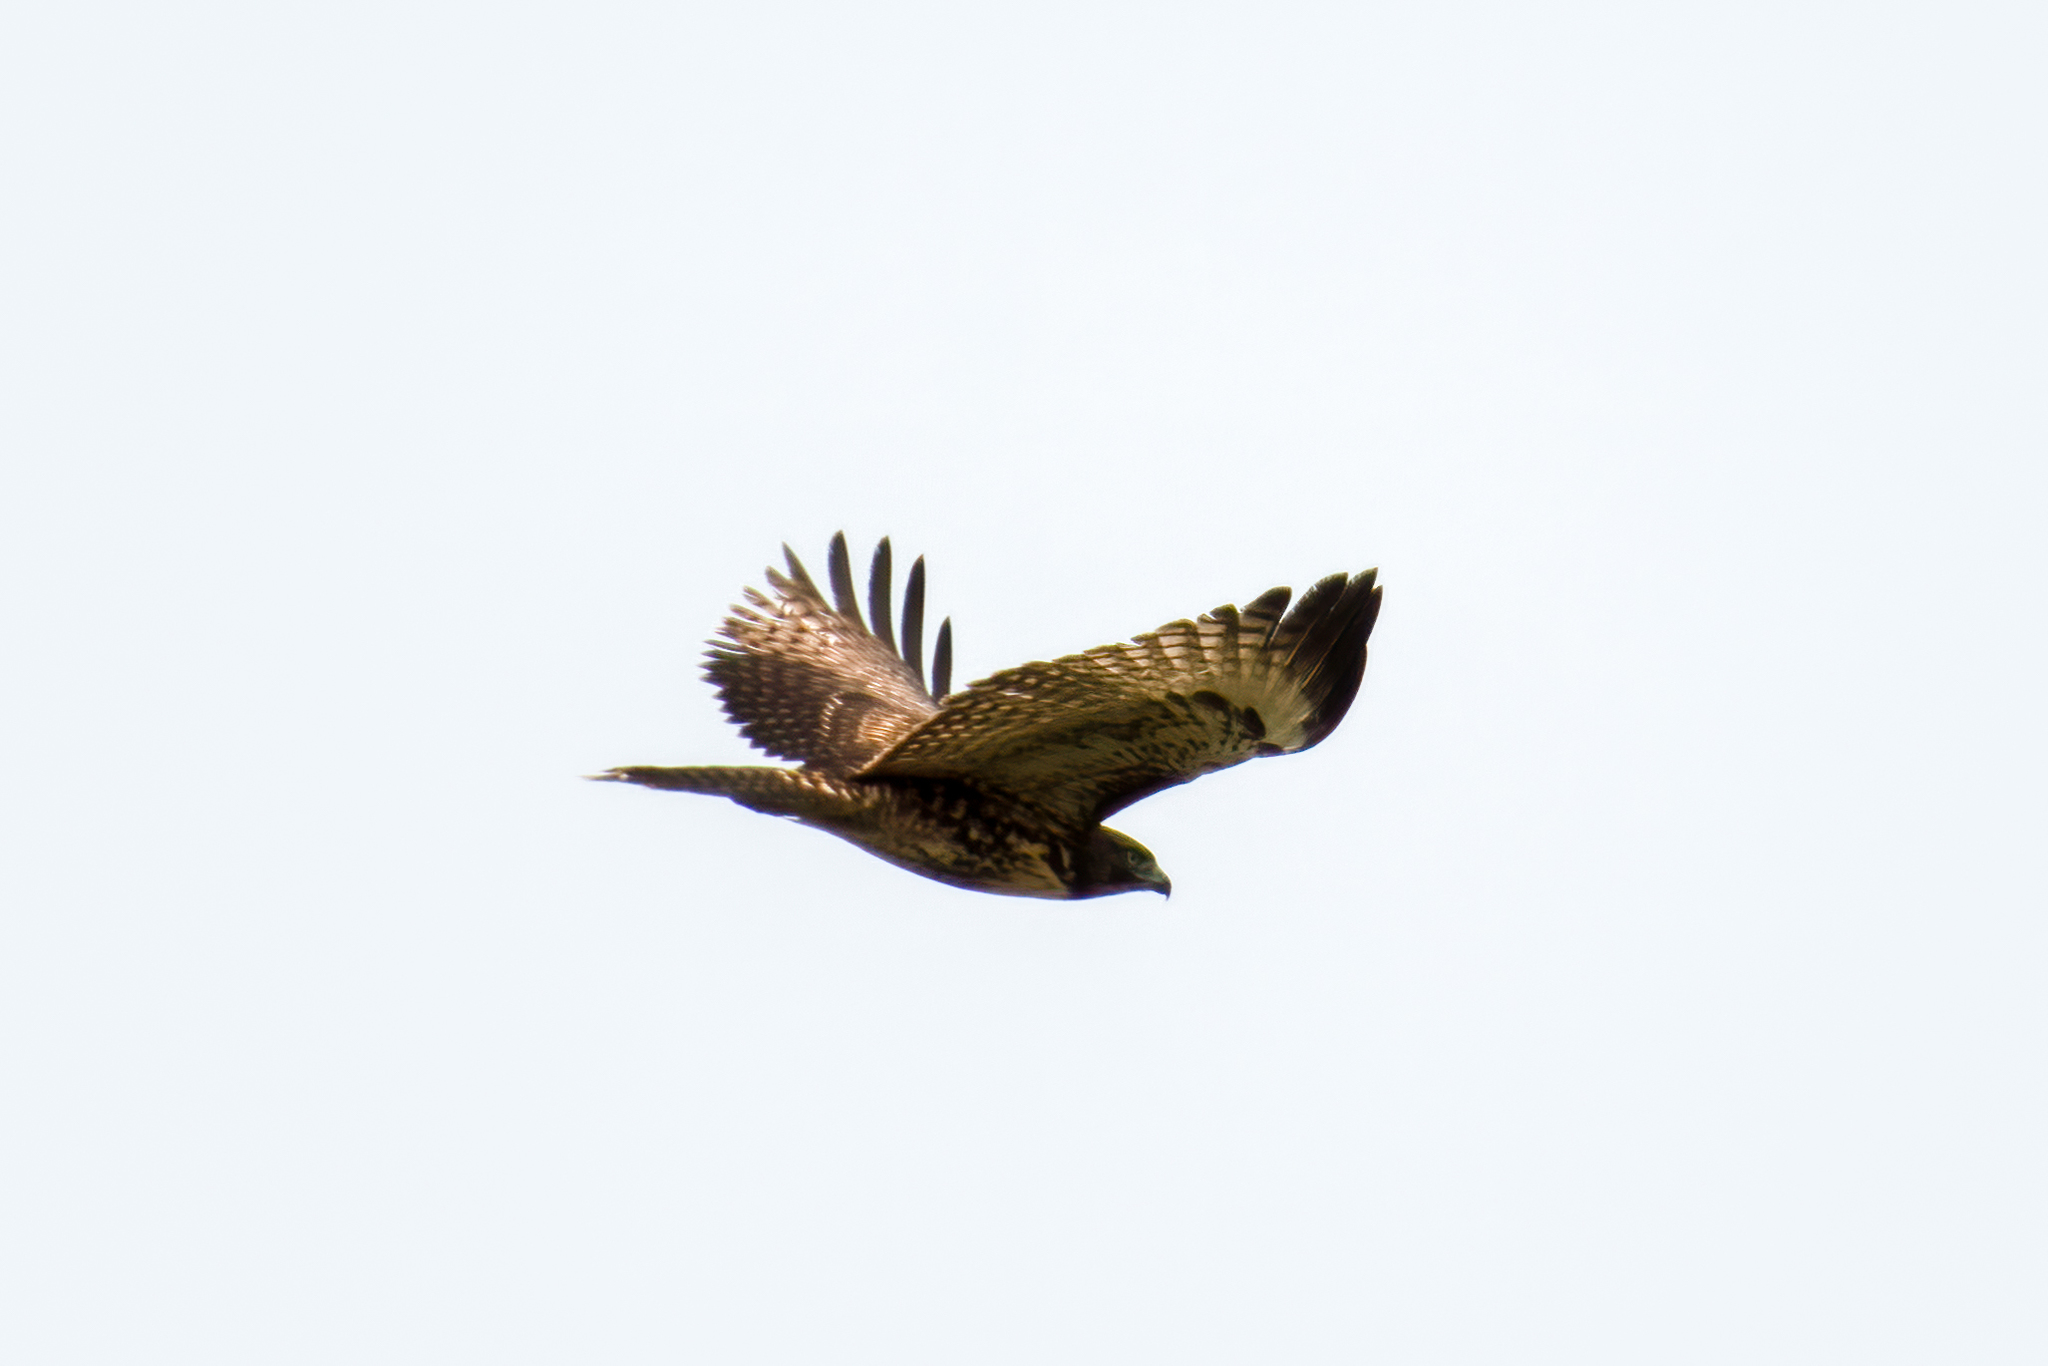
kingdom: Animalia
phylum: Chordata
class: Aves
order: Accipitriformes
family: Accipitridae
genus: Buteo
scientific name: Buteo jamaicensis
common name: Red-tailed hawk
